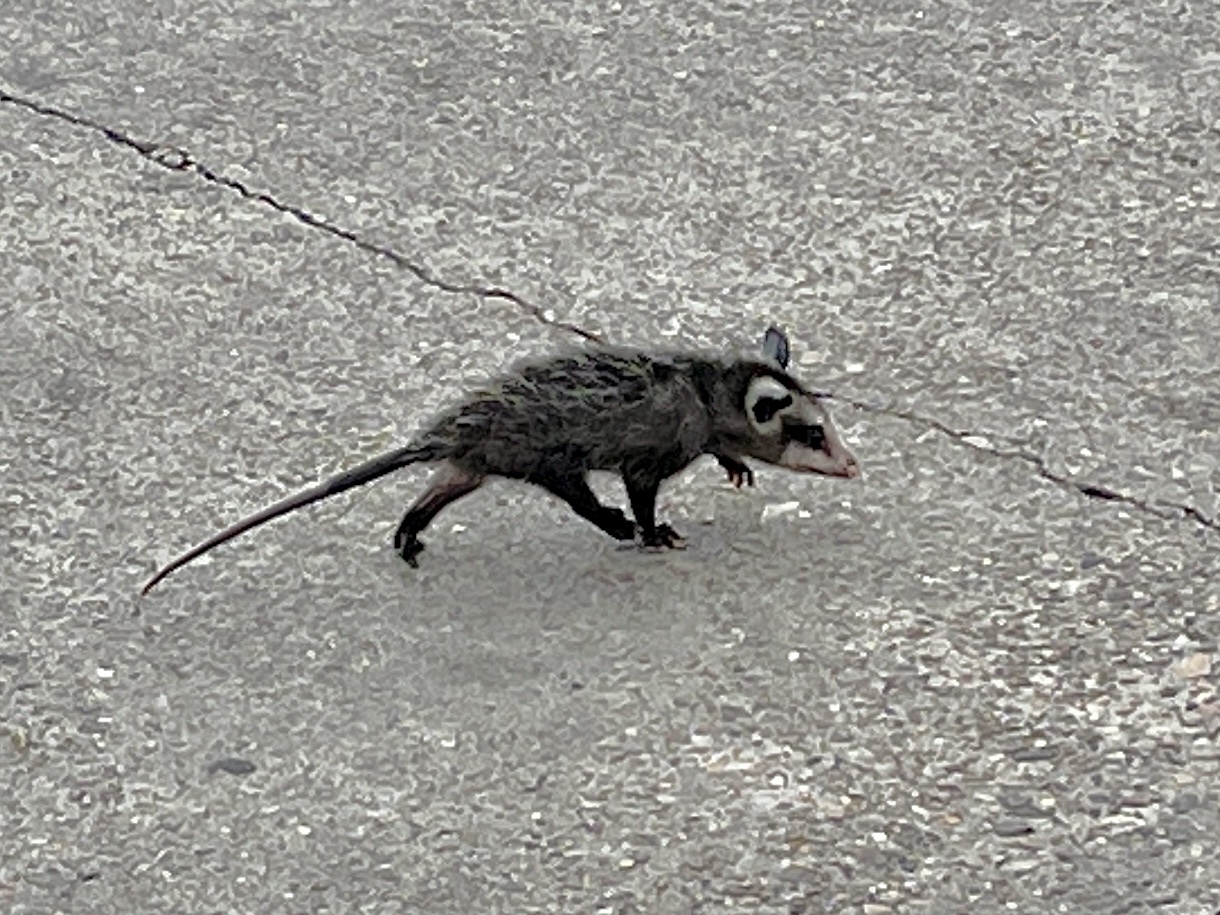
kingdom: Animalia
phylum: Chordata
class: Mammalia
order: Didelphimorphia
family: Didelphidae
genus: Didelphis
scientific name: Didelphis virginiana
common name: Virginia opossum
